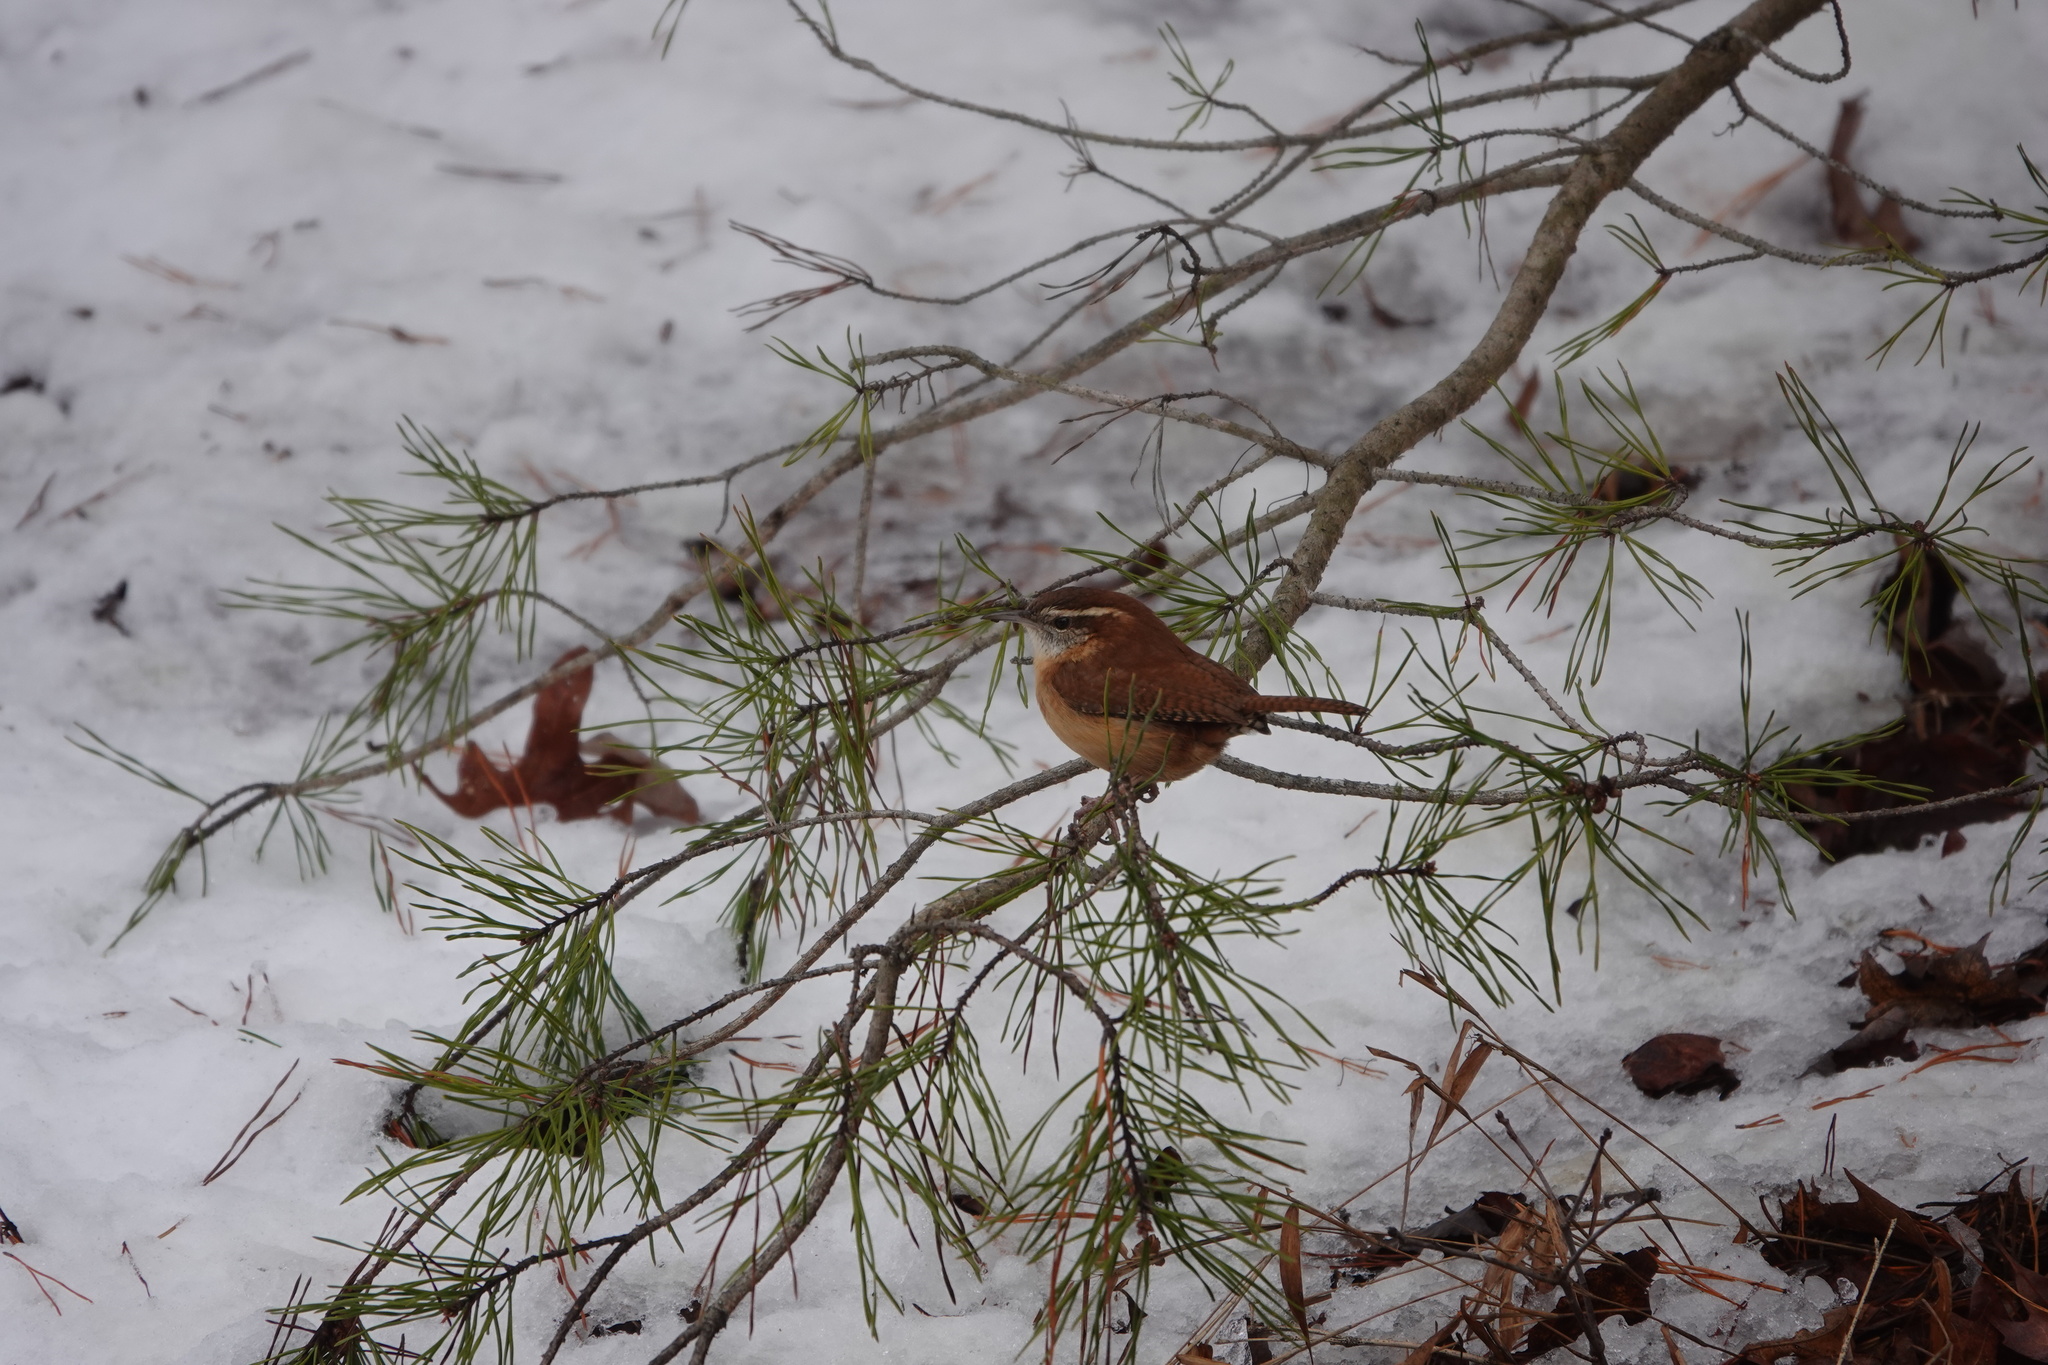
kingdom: Animalia
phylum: Chordata
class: Aves
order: Passeriformes
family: Troglodytidae
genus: Thryothorus
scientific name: Thryothorus ludovicianus
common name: Carolina wren
